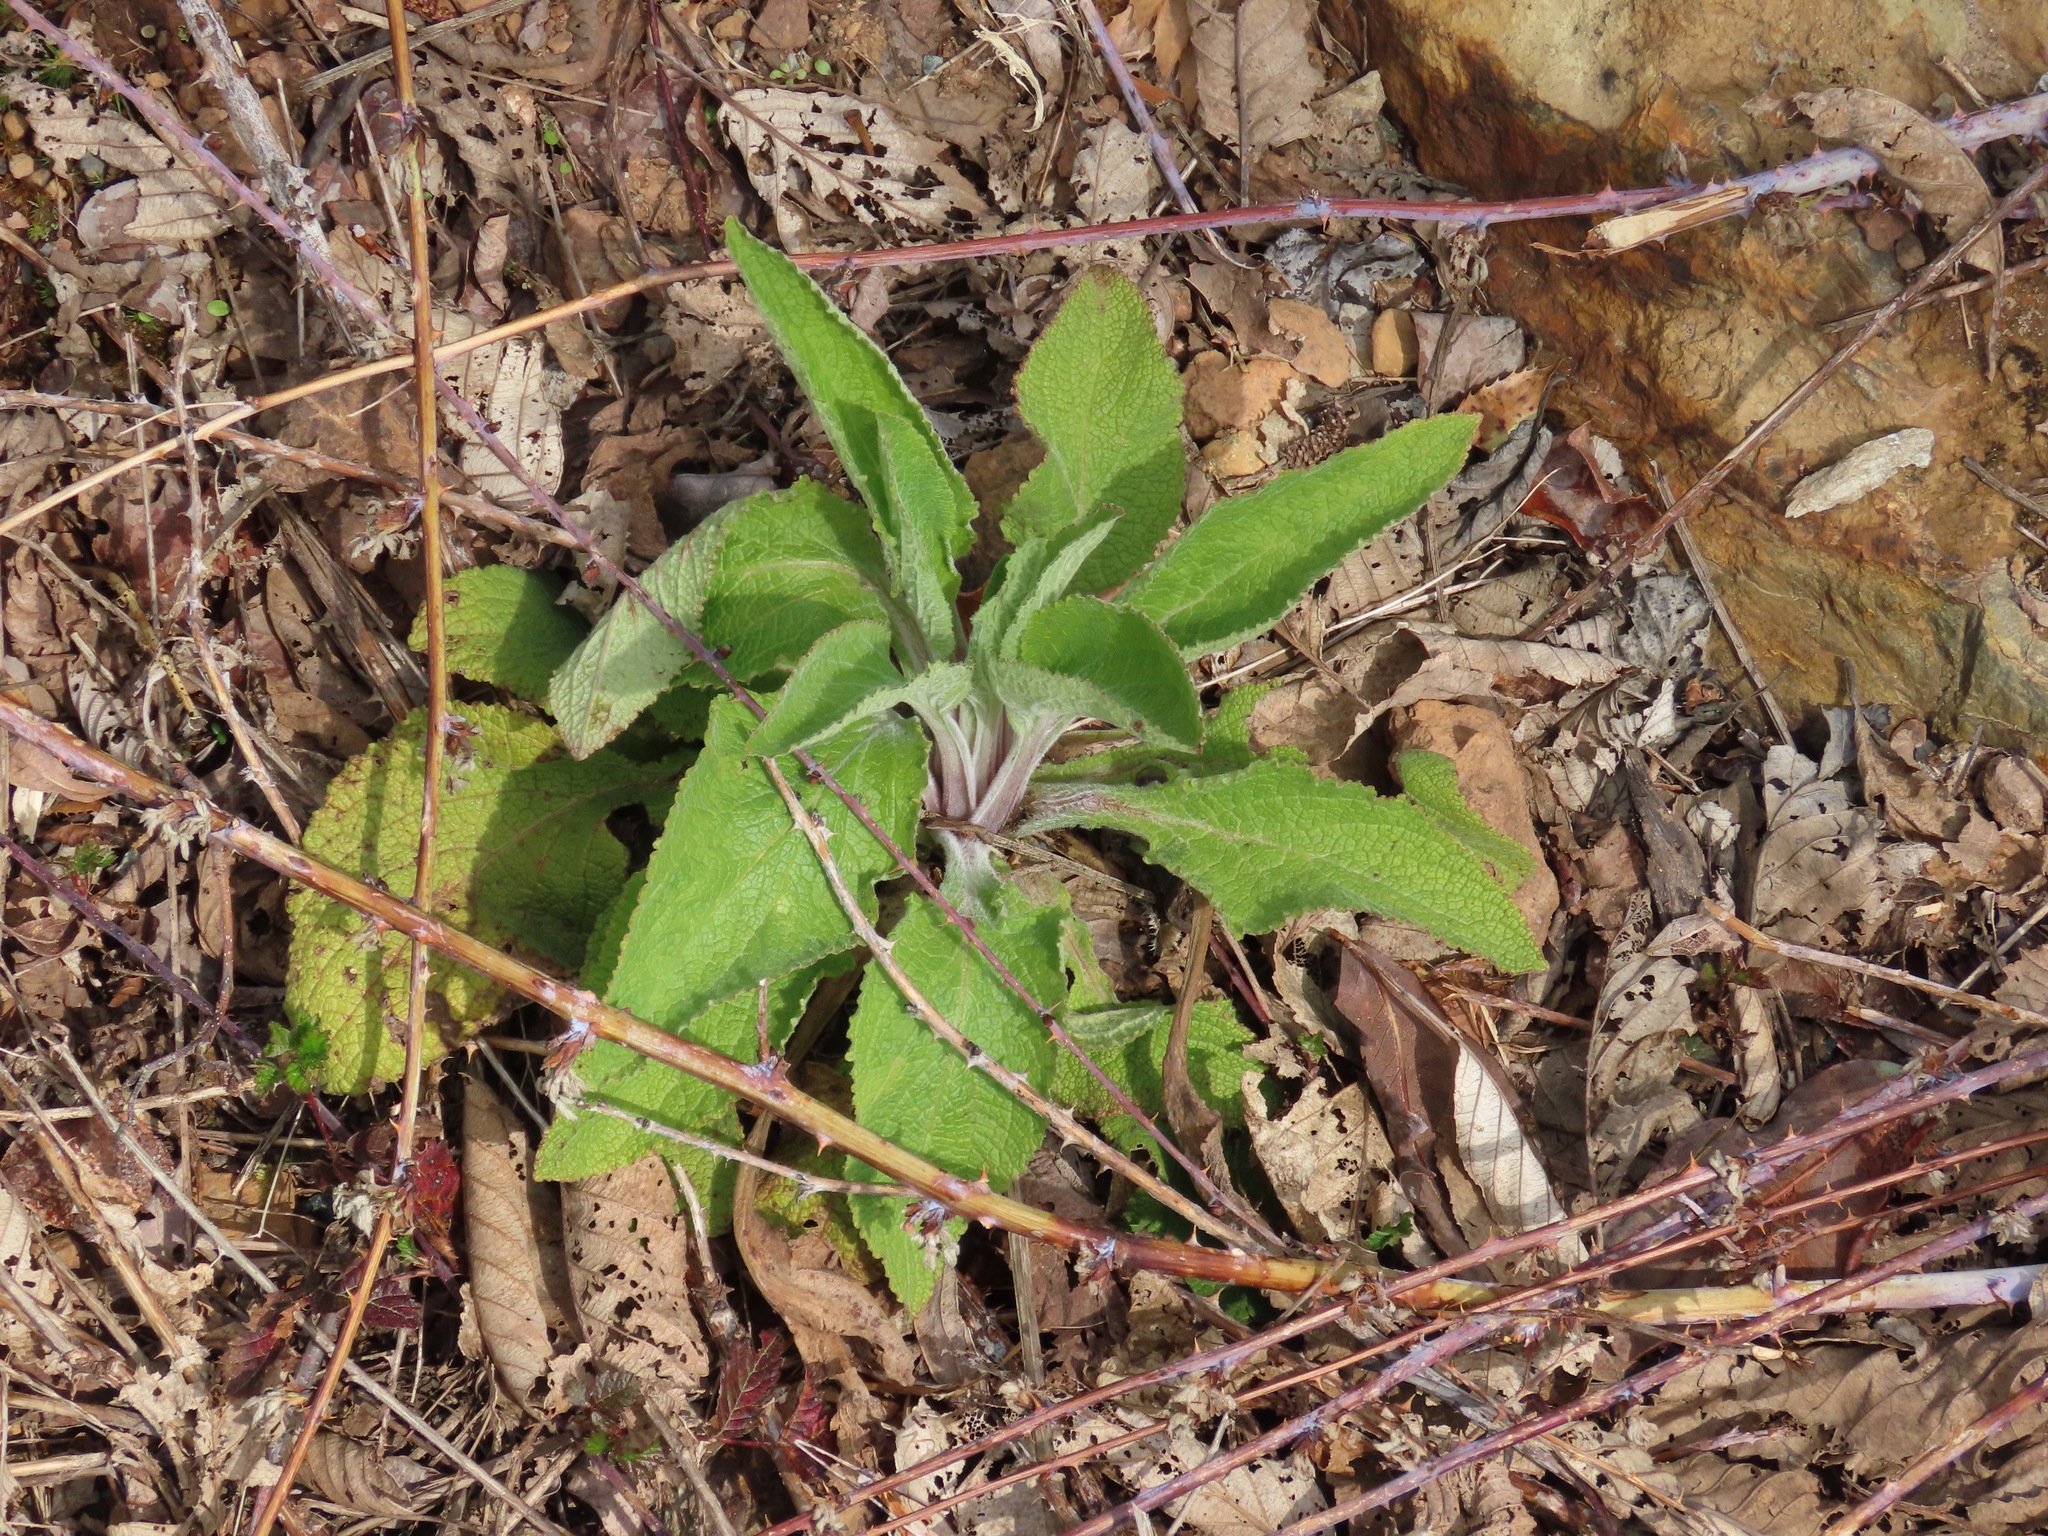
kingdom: Plantae
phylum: Tracheophyta
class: Magnoliopsida
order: Lamiales
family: Plantaginaceae
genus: Digitalis
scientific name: Digitalis purpurea
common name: Foxglove
